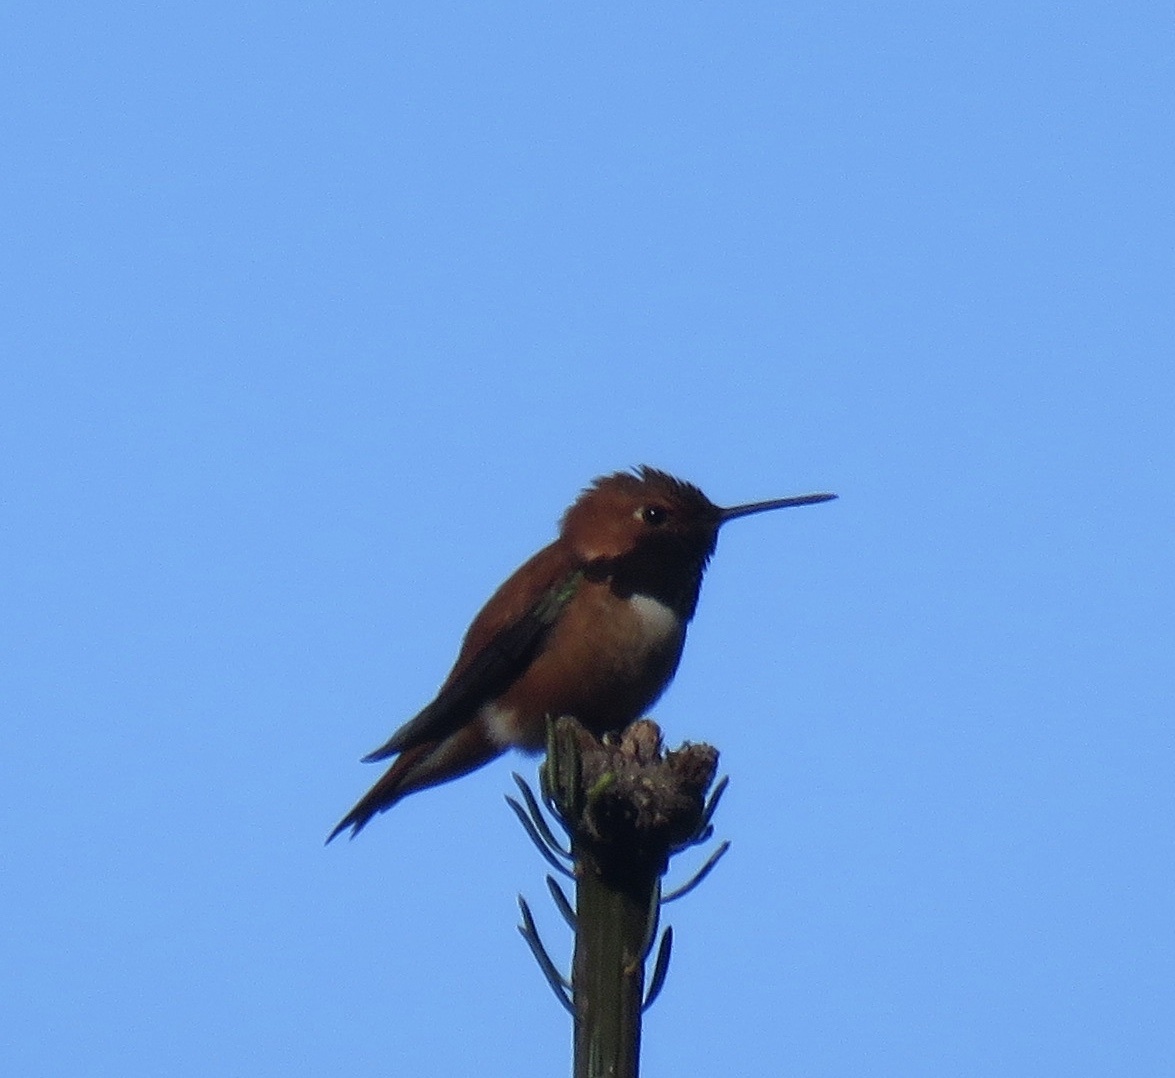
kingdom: Animalia
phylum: Chordata
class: Aves
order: Apodiformes
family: Trochilidae
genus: Selasphorus
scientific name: Selasphorus rufus
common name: Rufous hummingbird
